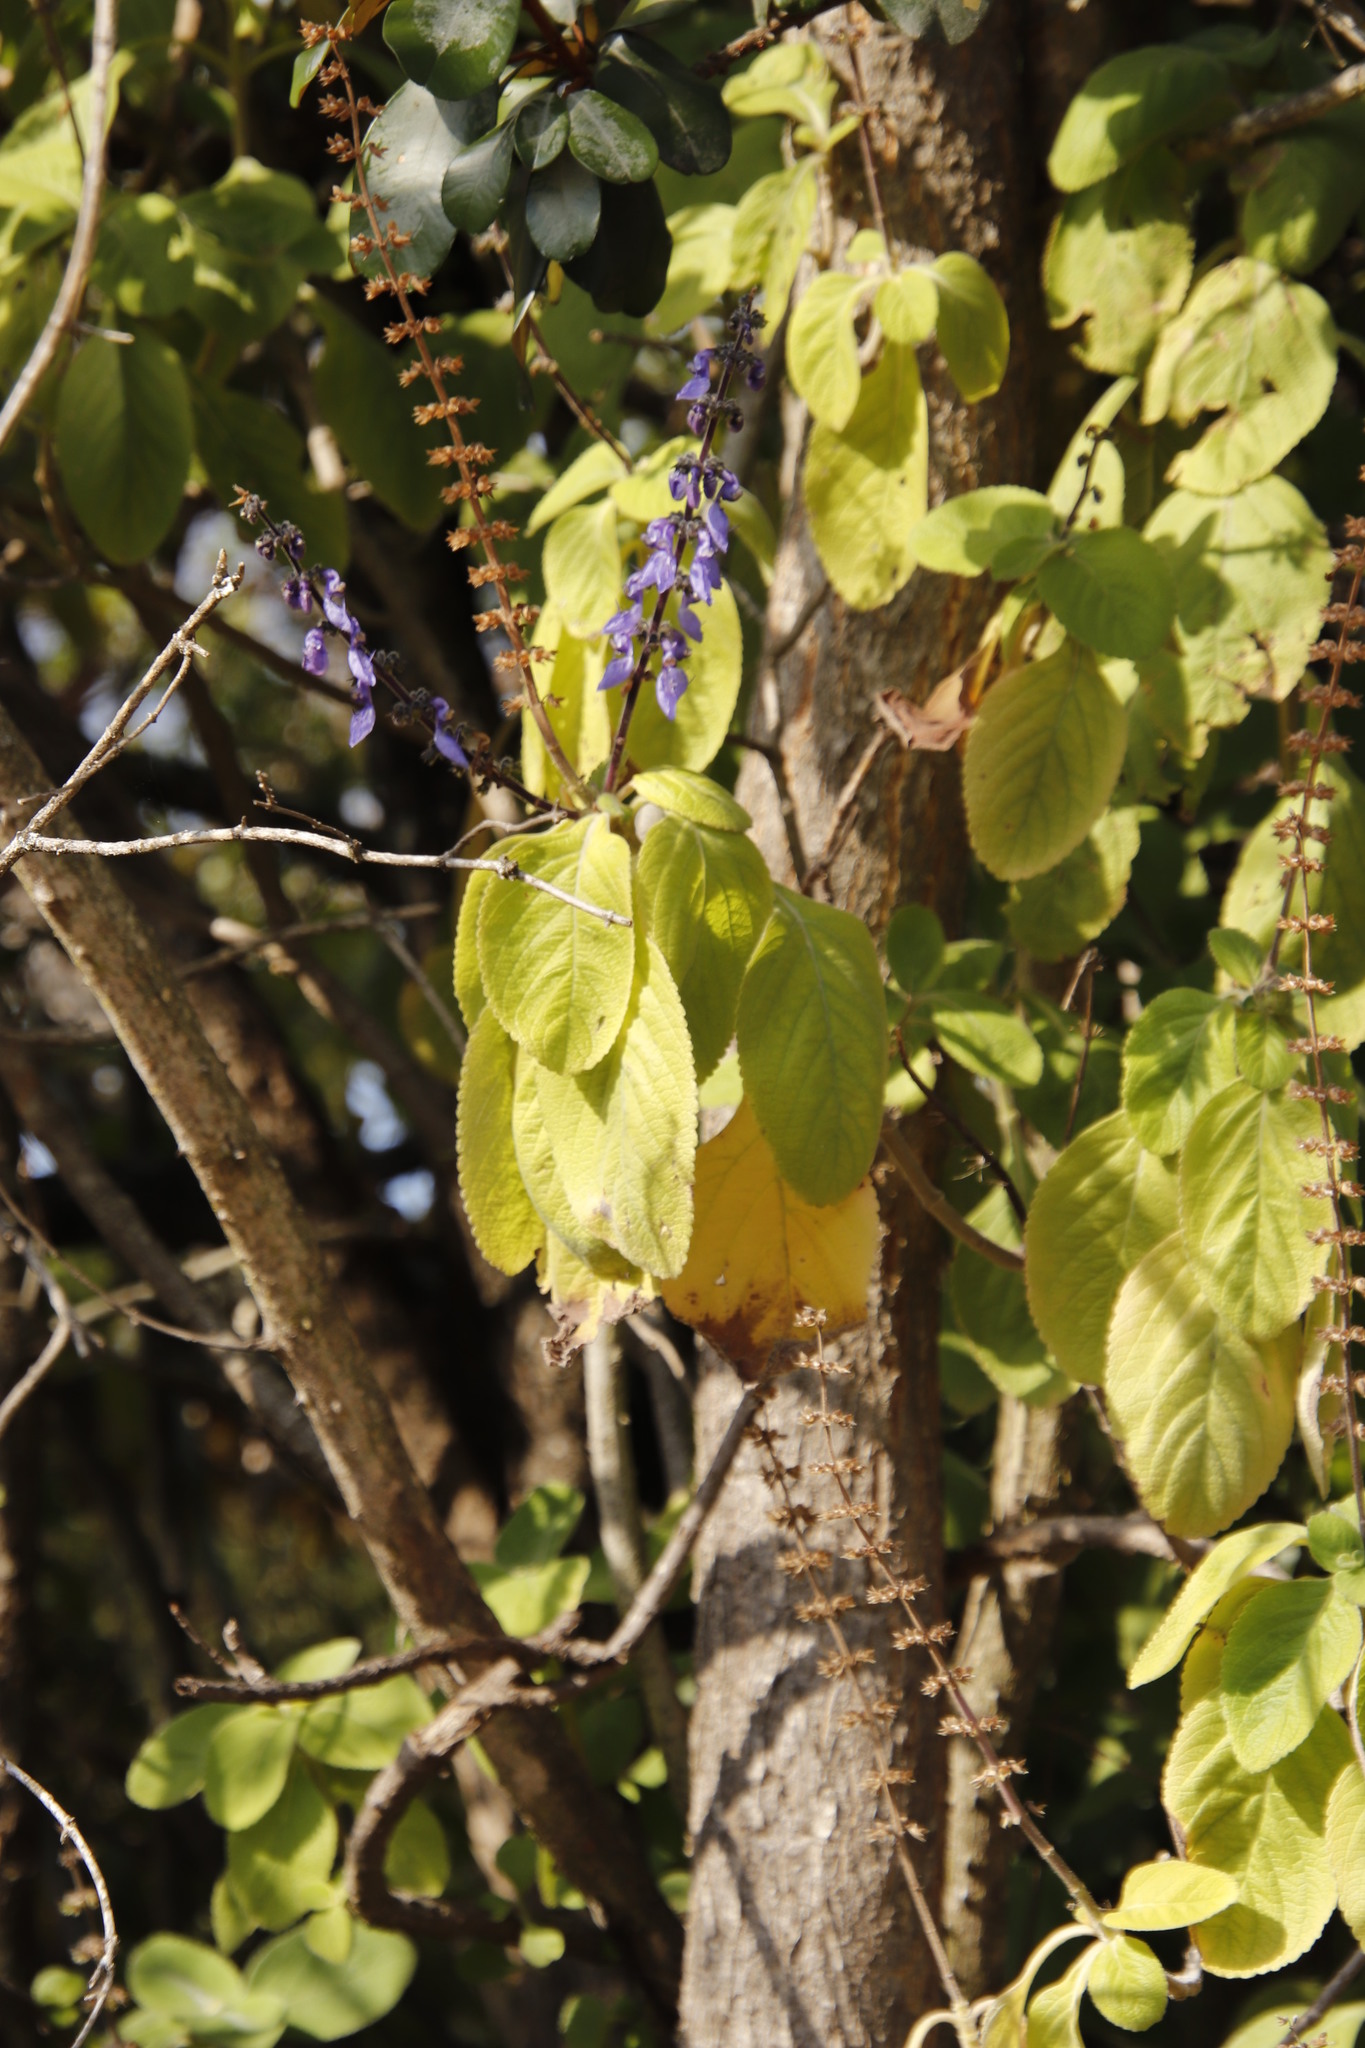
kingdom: Plantae
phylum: Tracheophyta
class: Magnoliopsida
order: Lamiales
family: Lamiaceae
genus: Coleus
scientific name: Coleus barbatus
